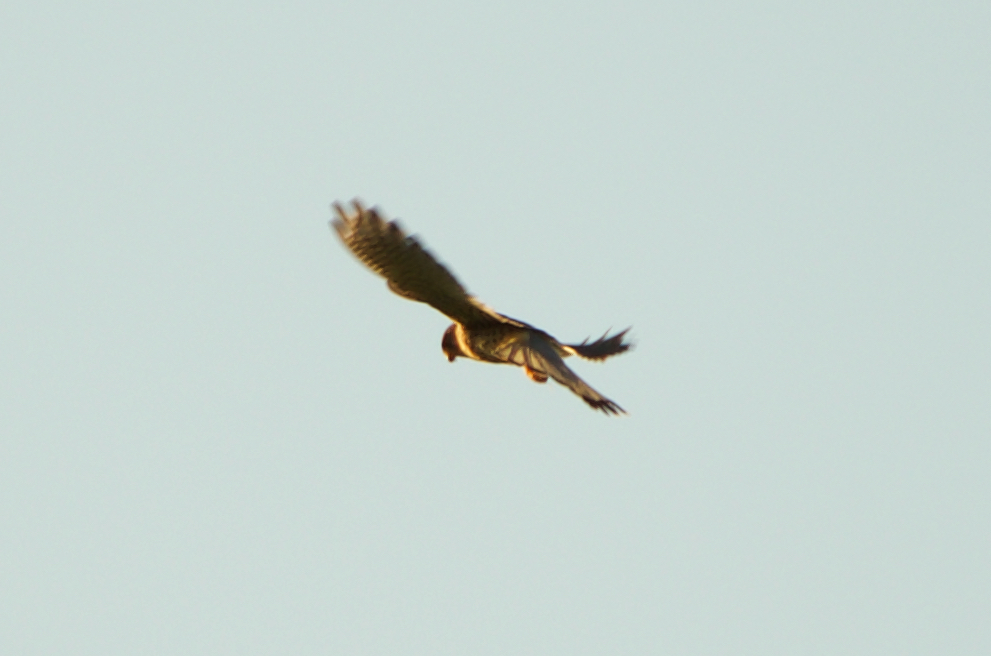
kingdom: Animalia
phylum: Chordata
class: Aves
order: Falconiformes
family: Falconidae
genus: Falco
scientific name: Falco tinnunculus
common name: Common kestrel
